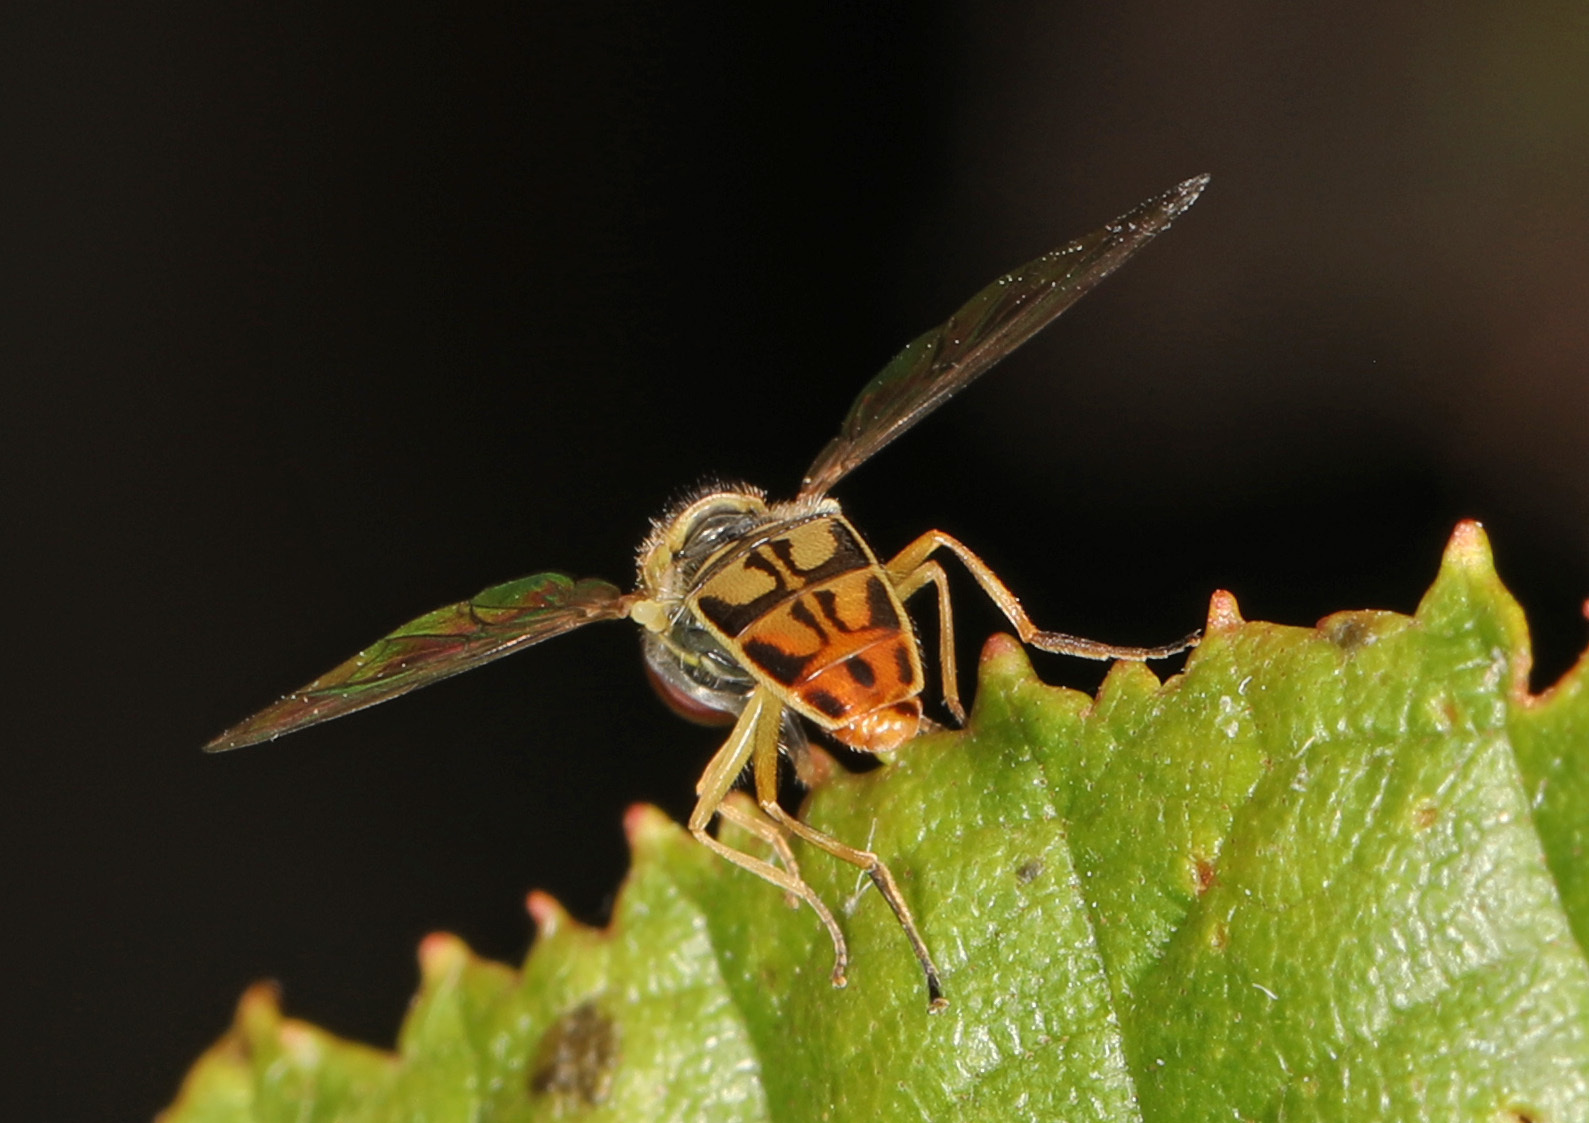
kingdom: Animalia
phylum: Arthropoda
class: Insecta
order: Diptera
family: Syrphidae
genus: Toxomerus
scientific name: Toxomerus marginatus
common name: Syrphid fly
